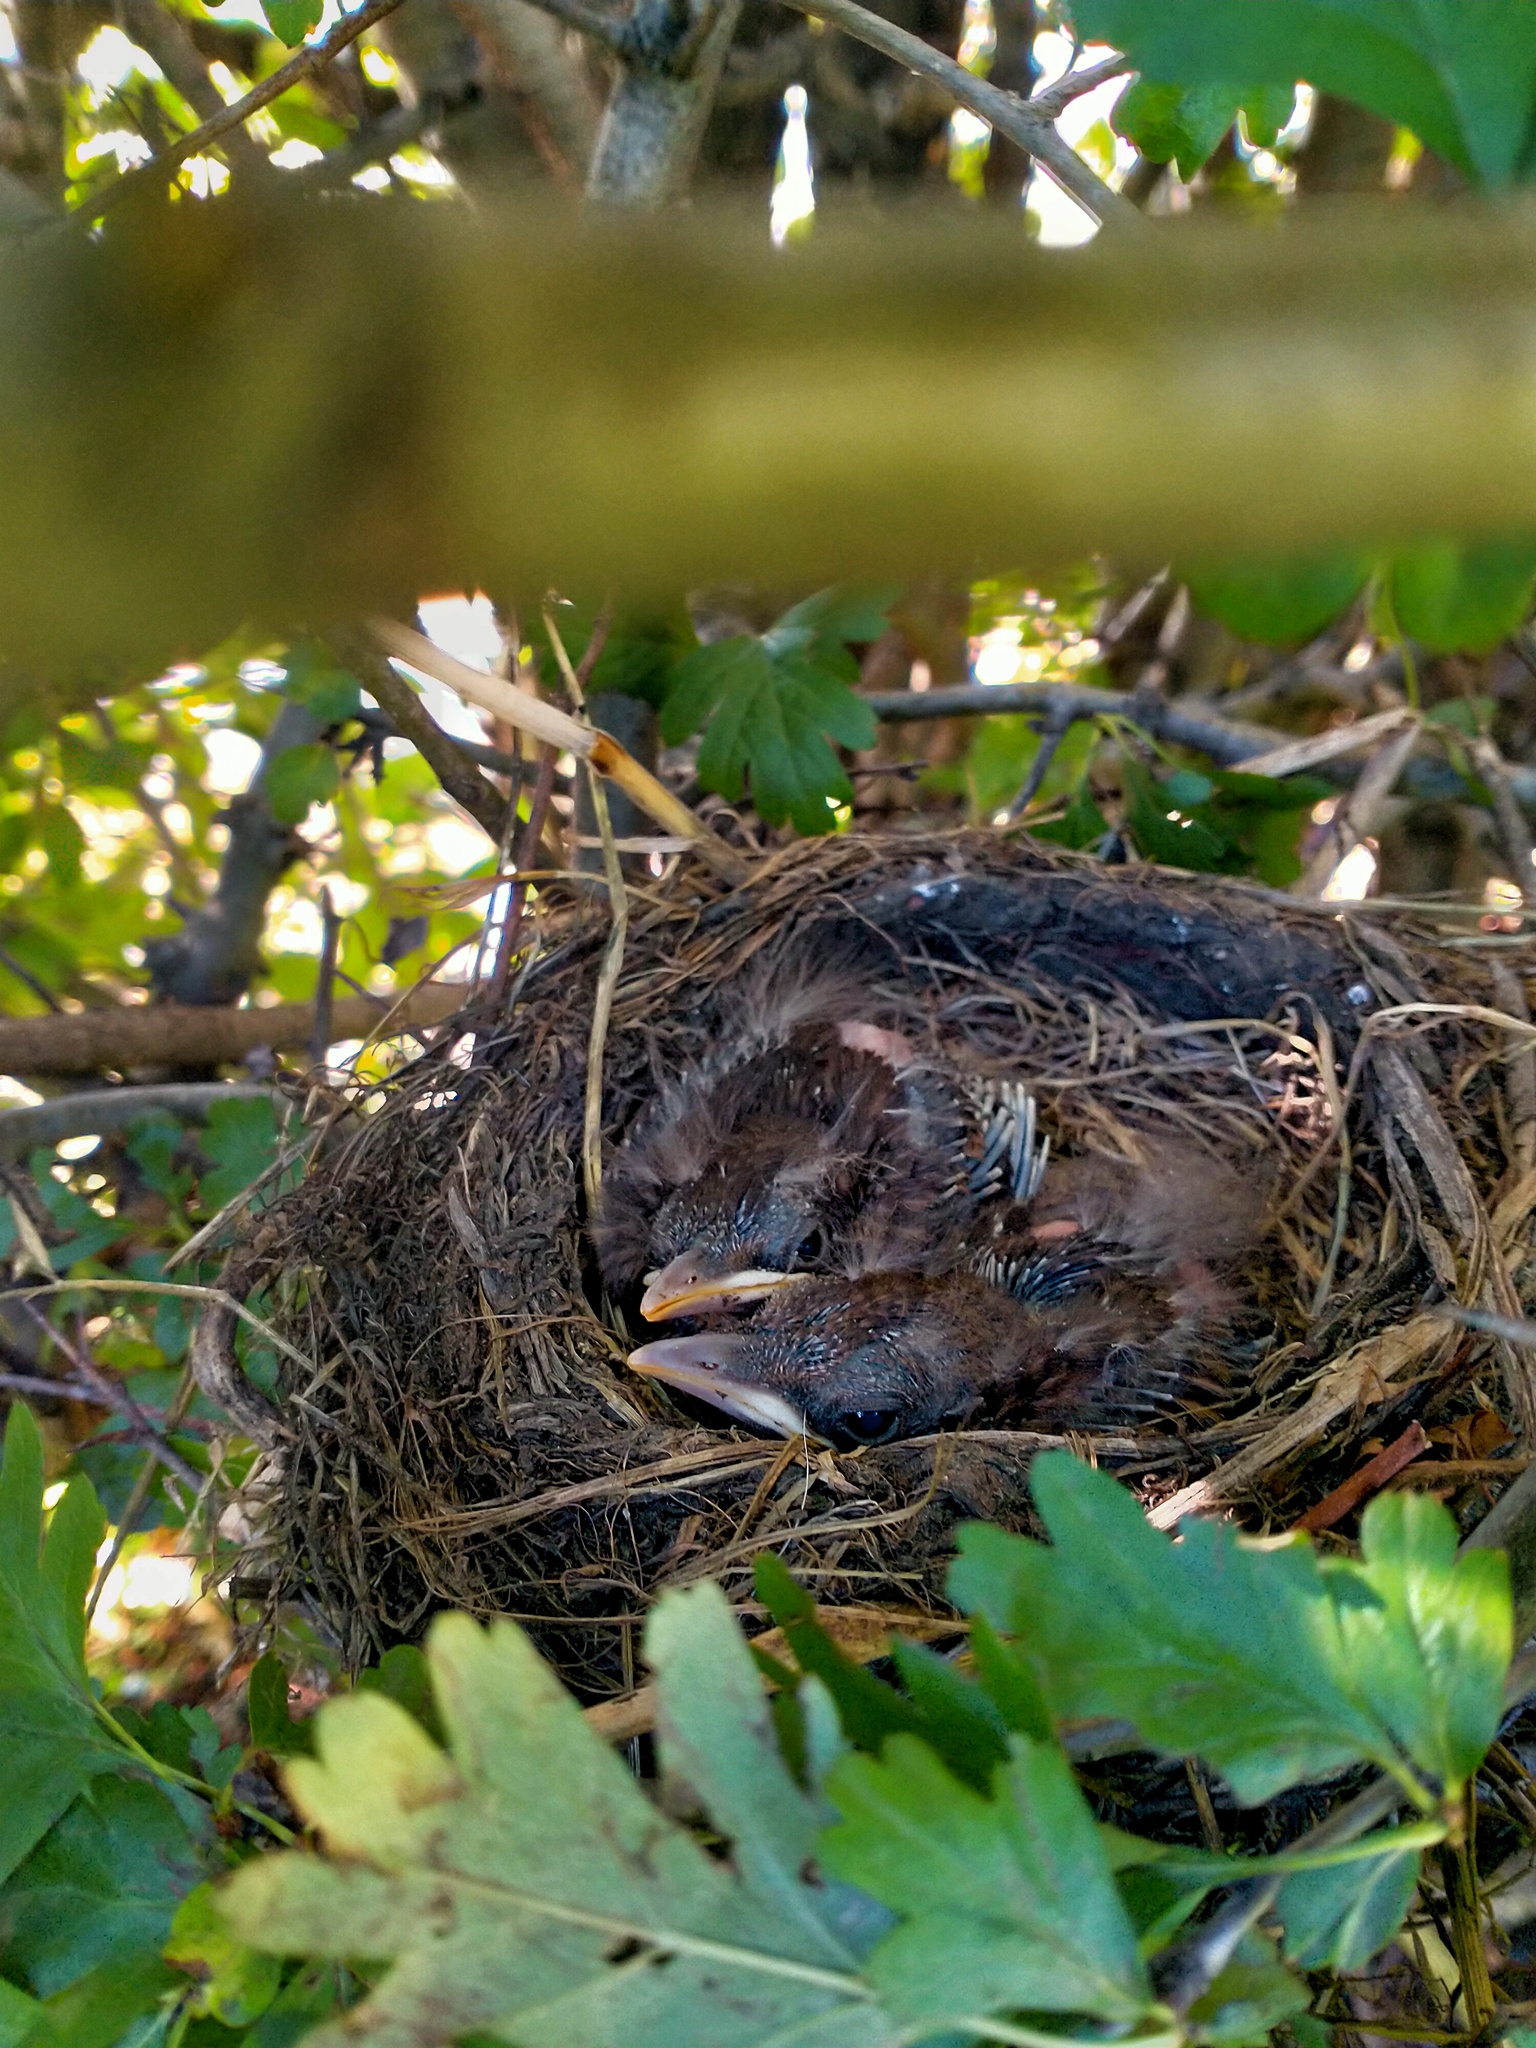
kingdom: Animalia
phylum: Chordata
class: Aves
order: Passeriformes
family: Turdidae
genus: Turdus
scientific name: Turdus merula
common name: Common blackbird
